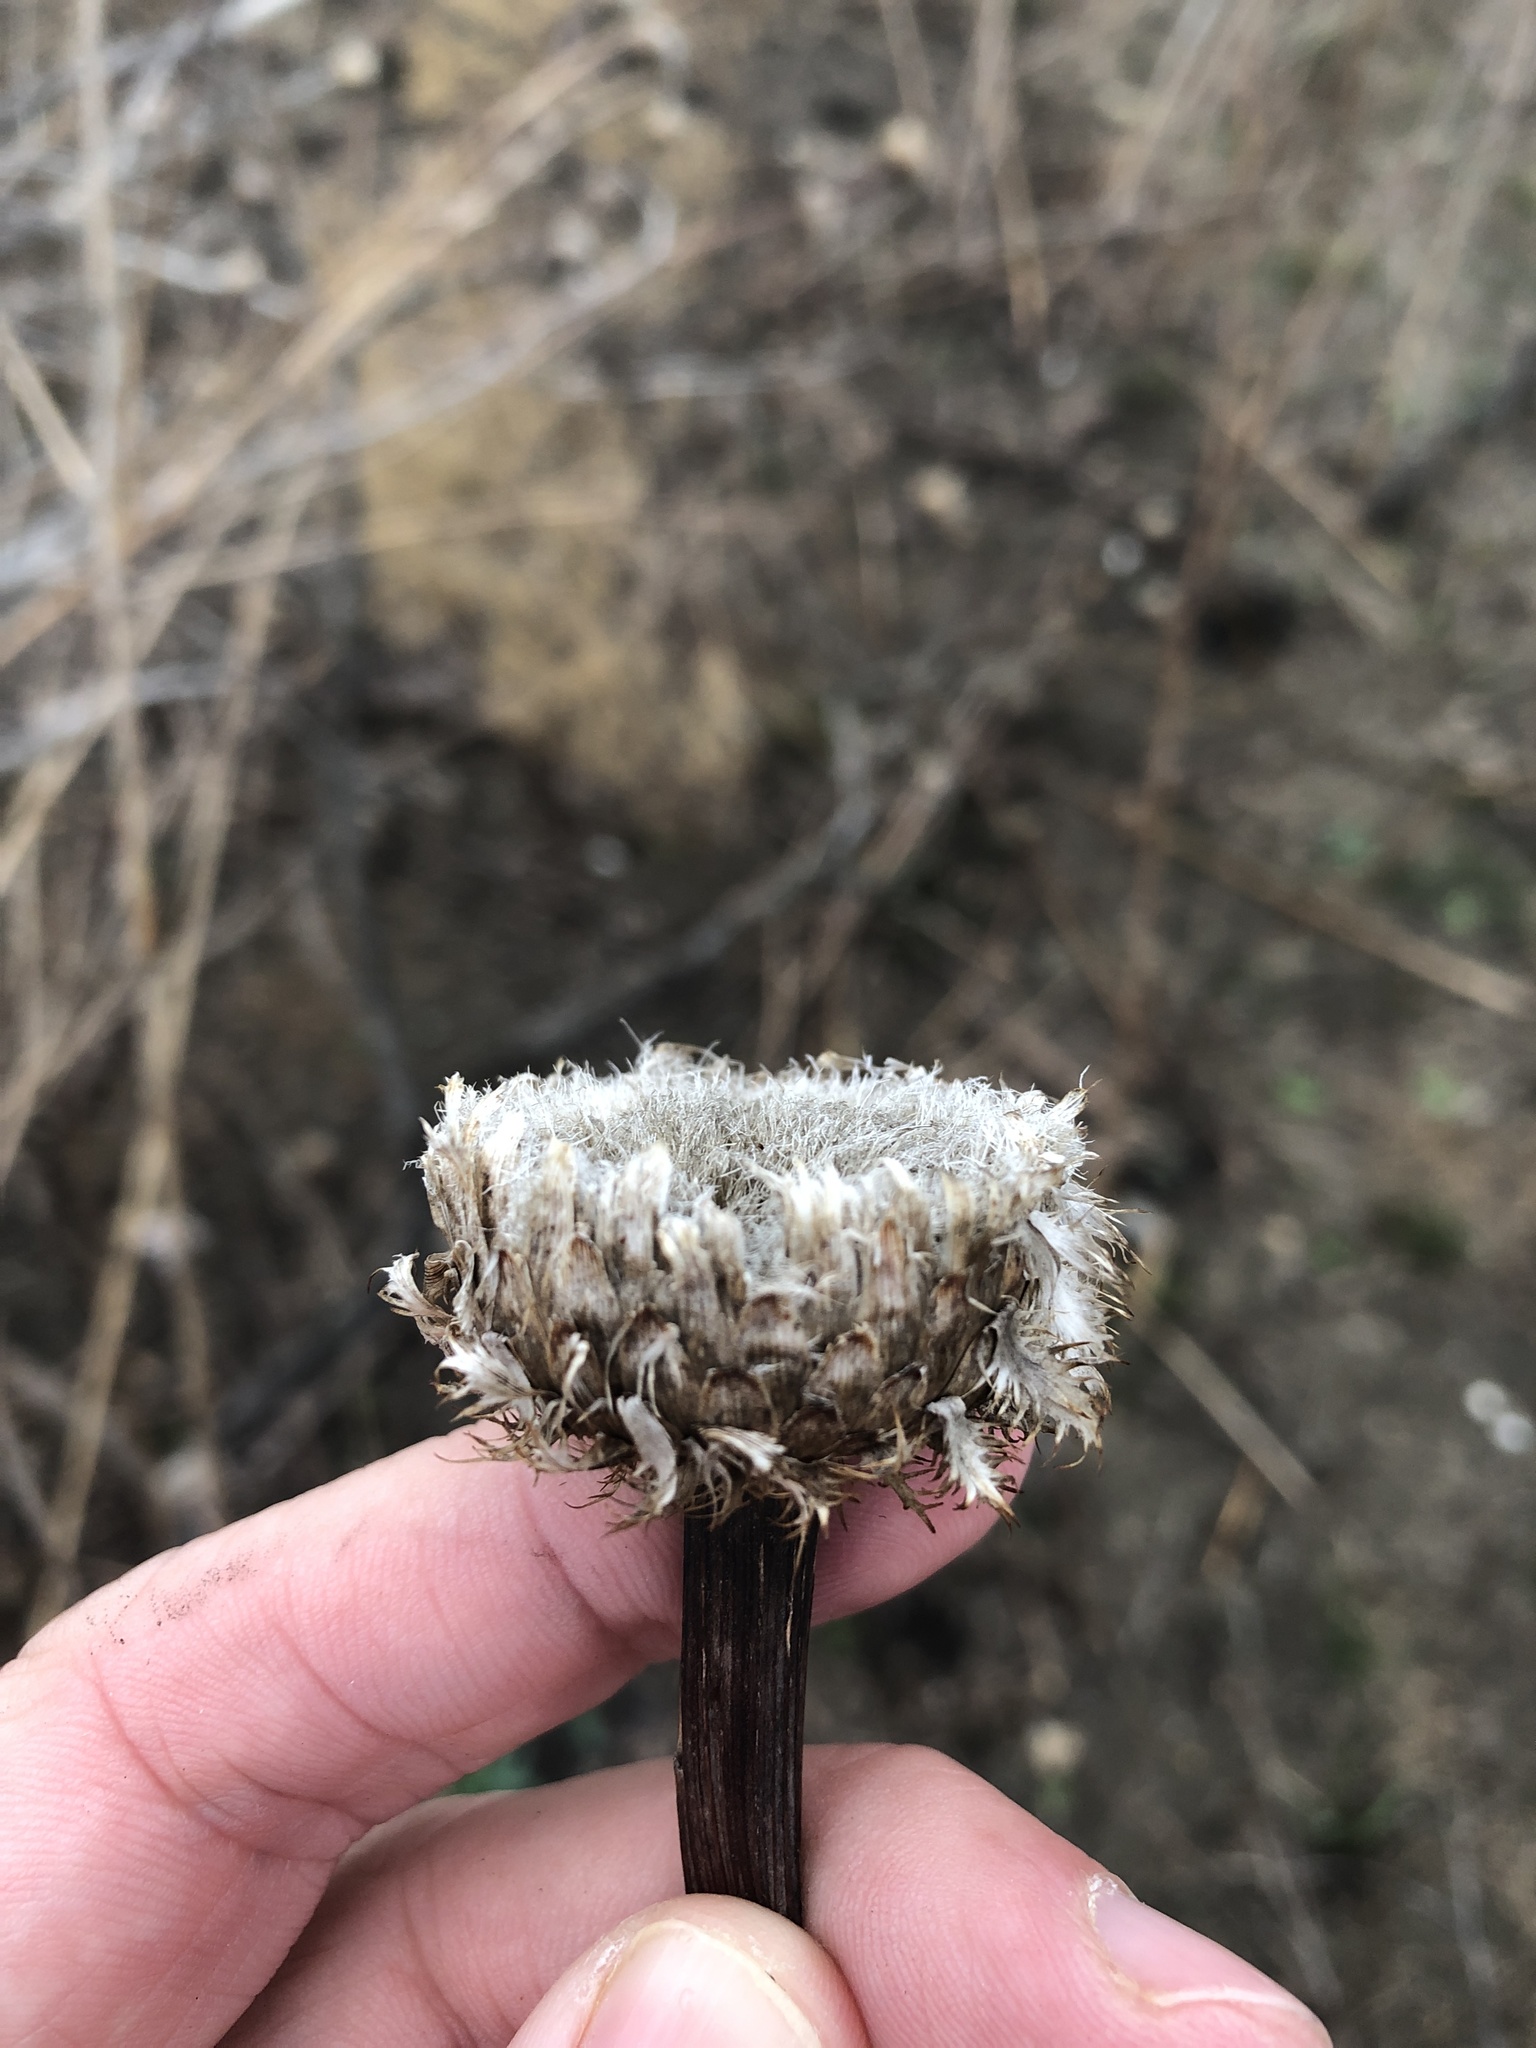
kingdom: Plantae
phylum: Tracheophyta
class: Magnoliopsida
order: Asterales
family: Asteraceae
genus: Plectocephalus
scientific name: Plectocephalus americanus
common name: American basket-flower
